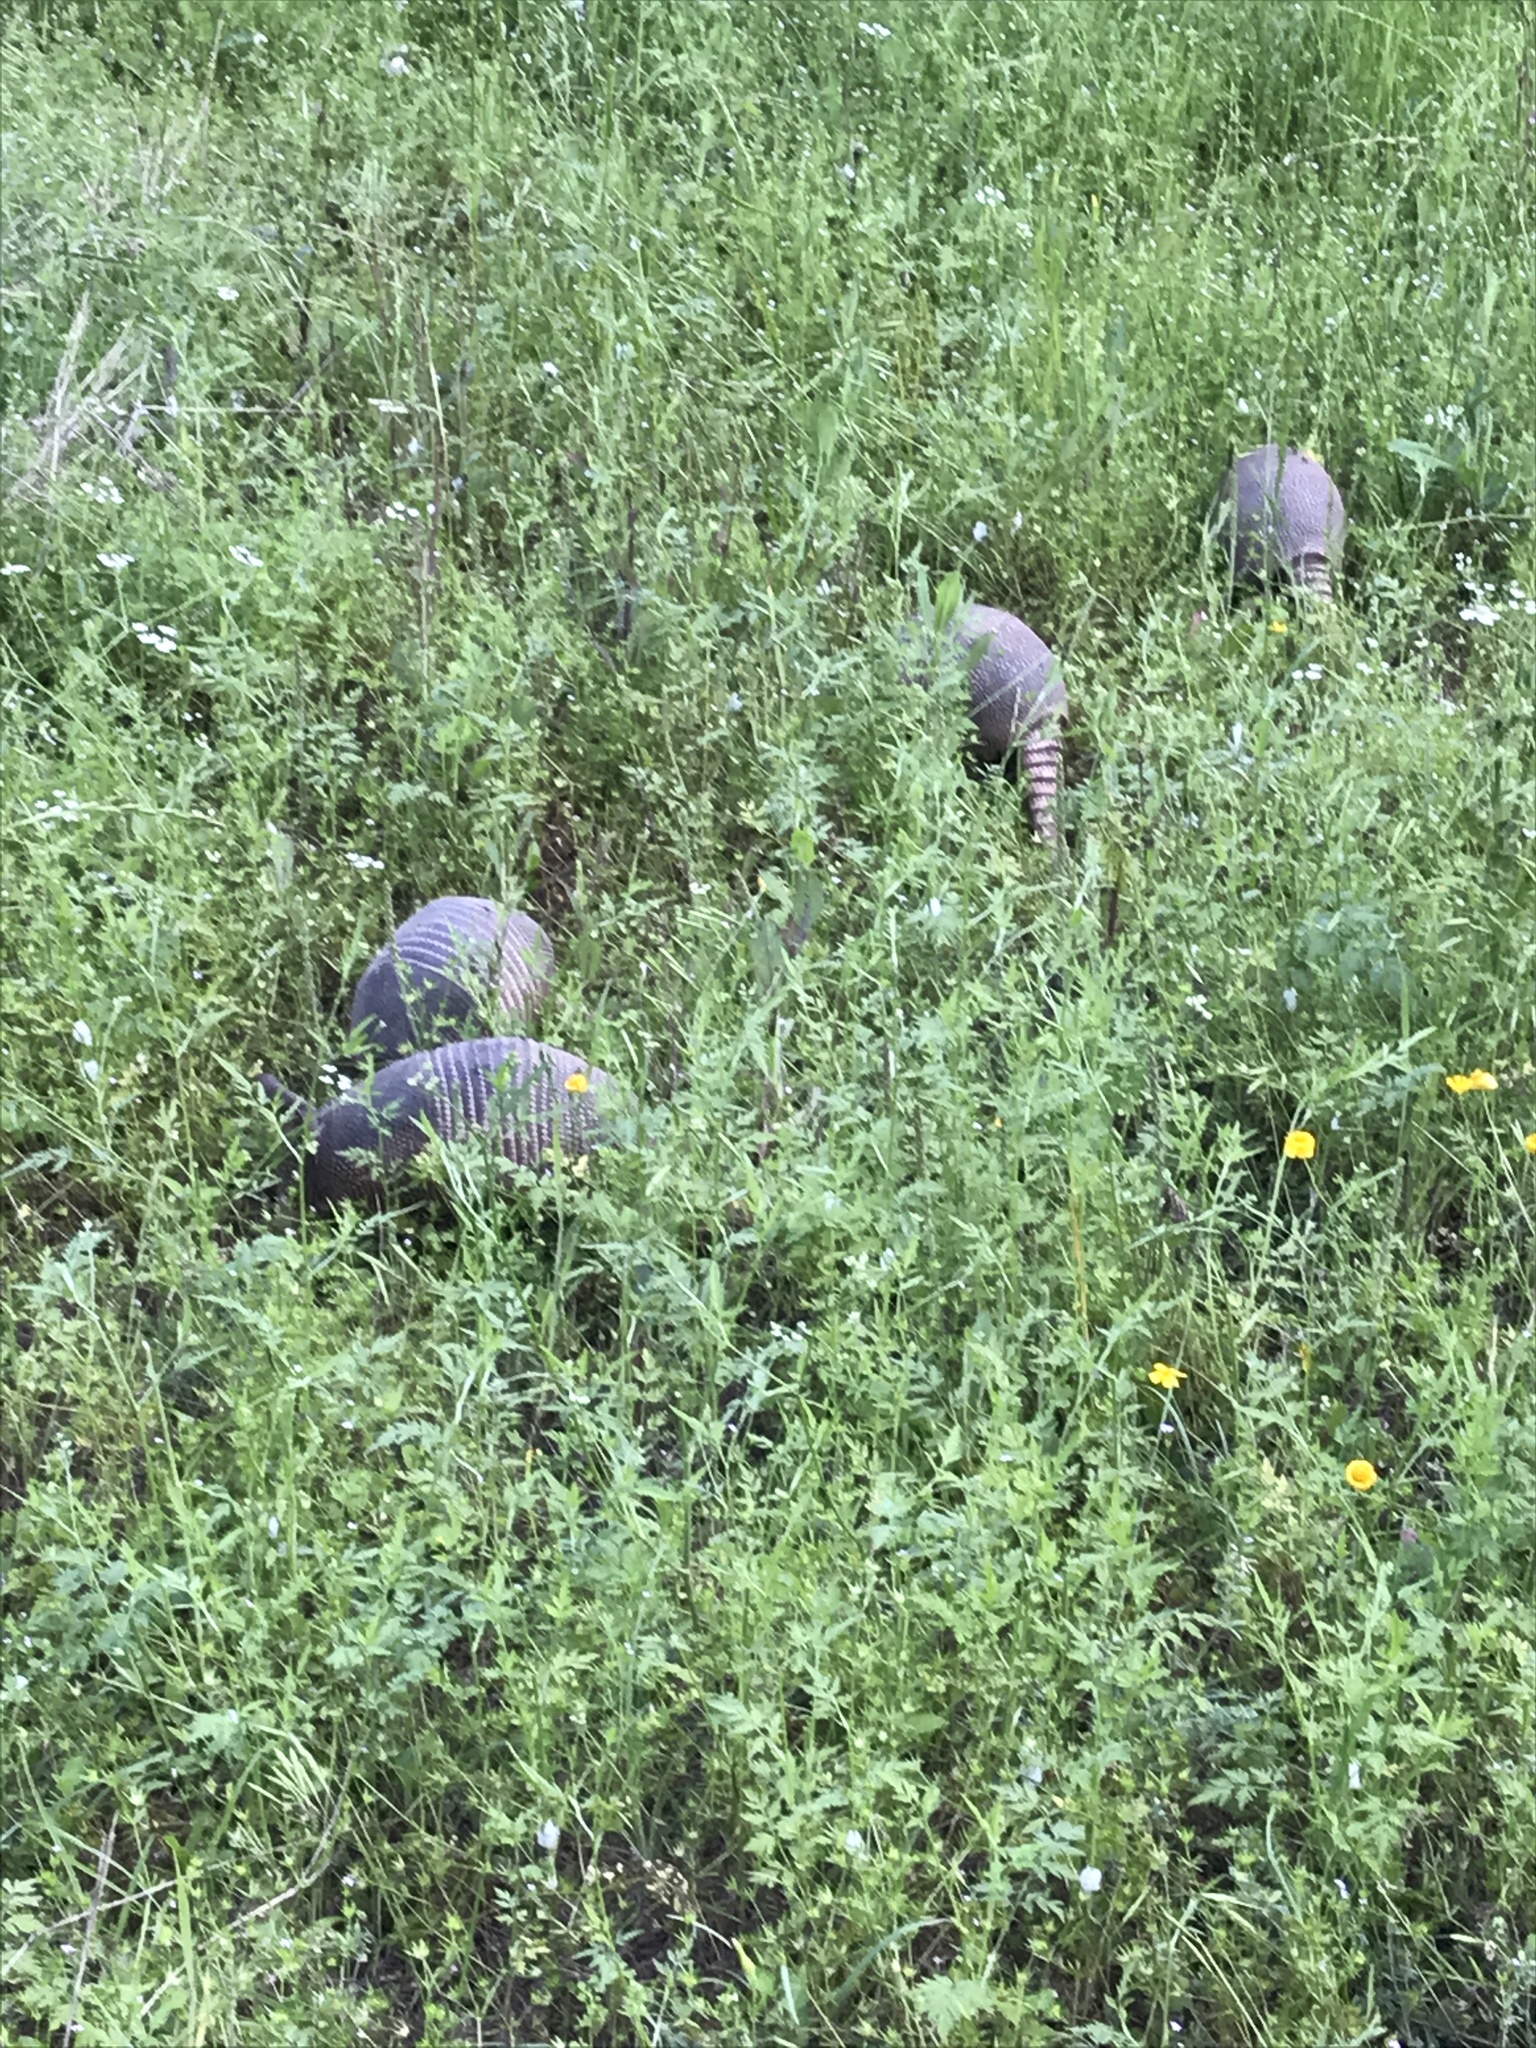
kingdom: Animalia
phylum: Chordata
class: Mammalia
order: Cingulata
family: Dasypodidae
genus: Dasypus
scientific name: Dasypus novemcinctus
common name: Nine-banded armadillo
